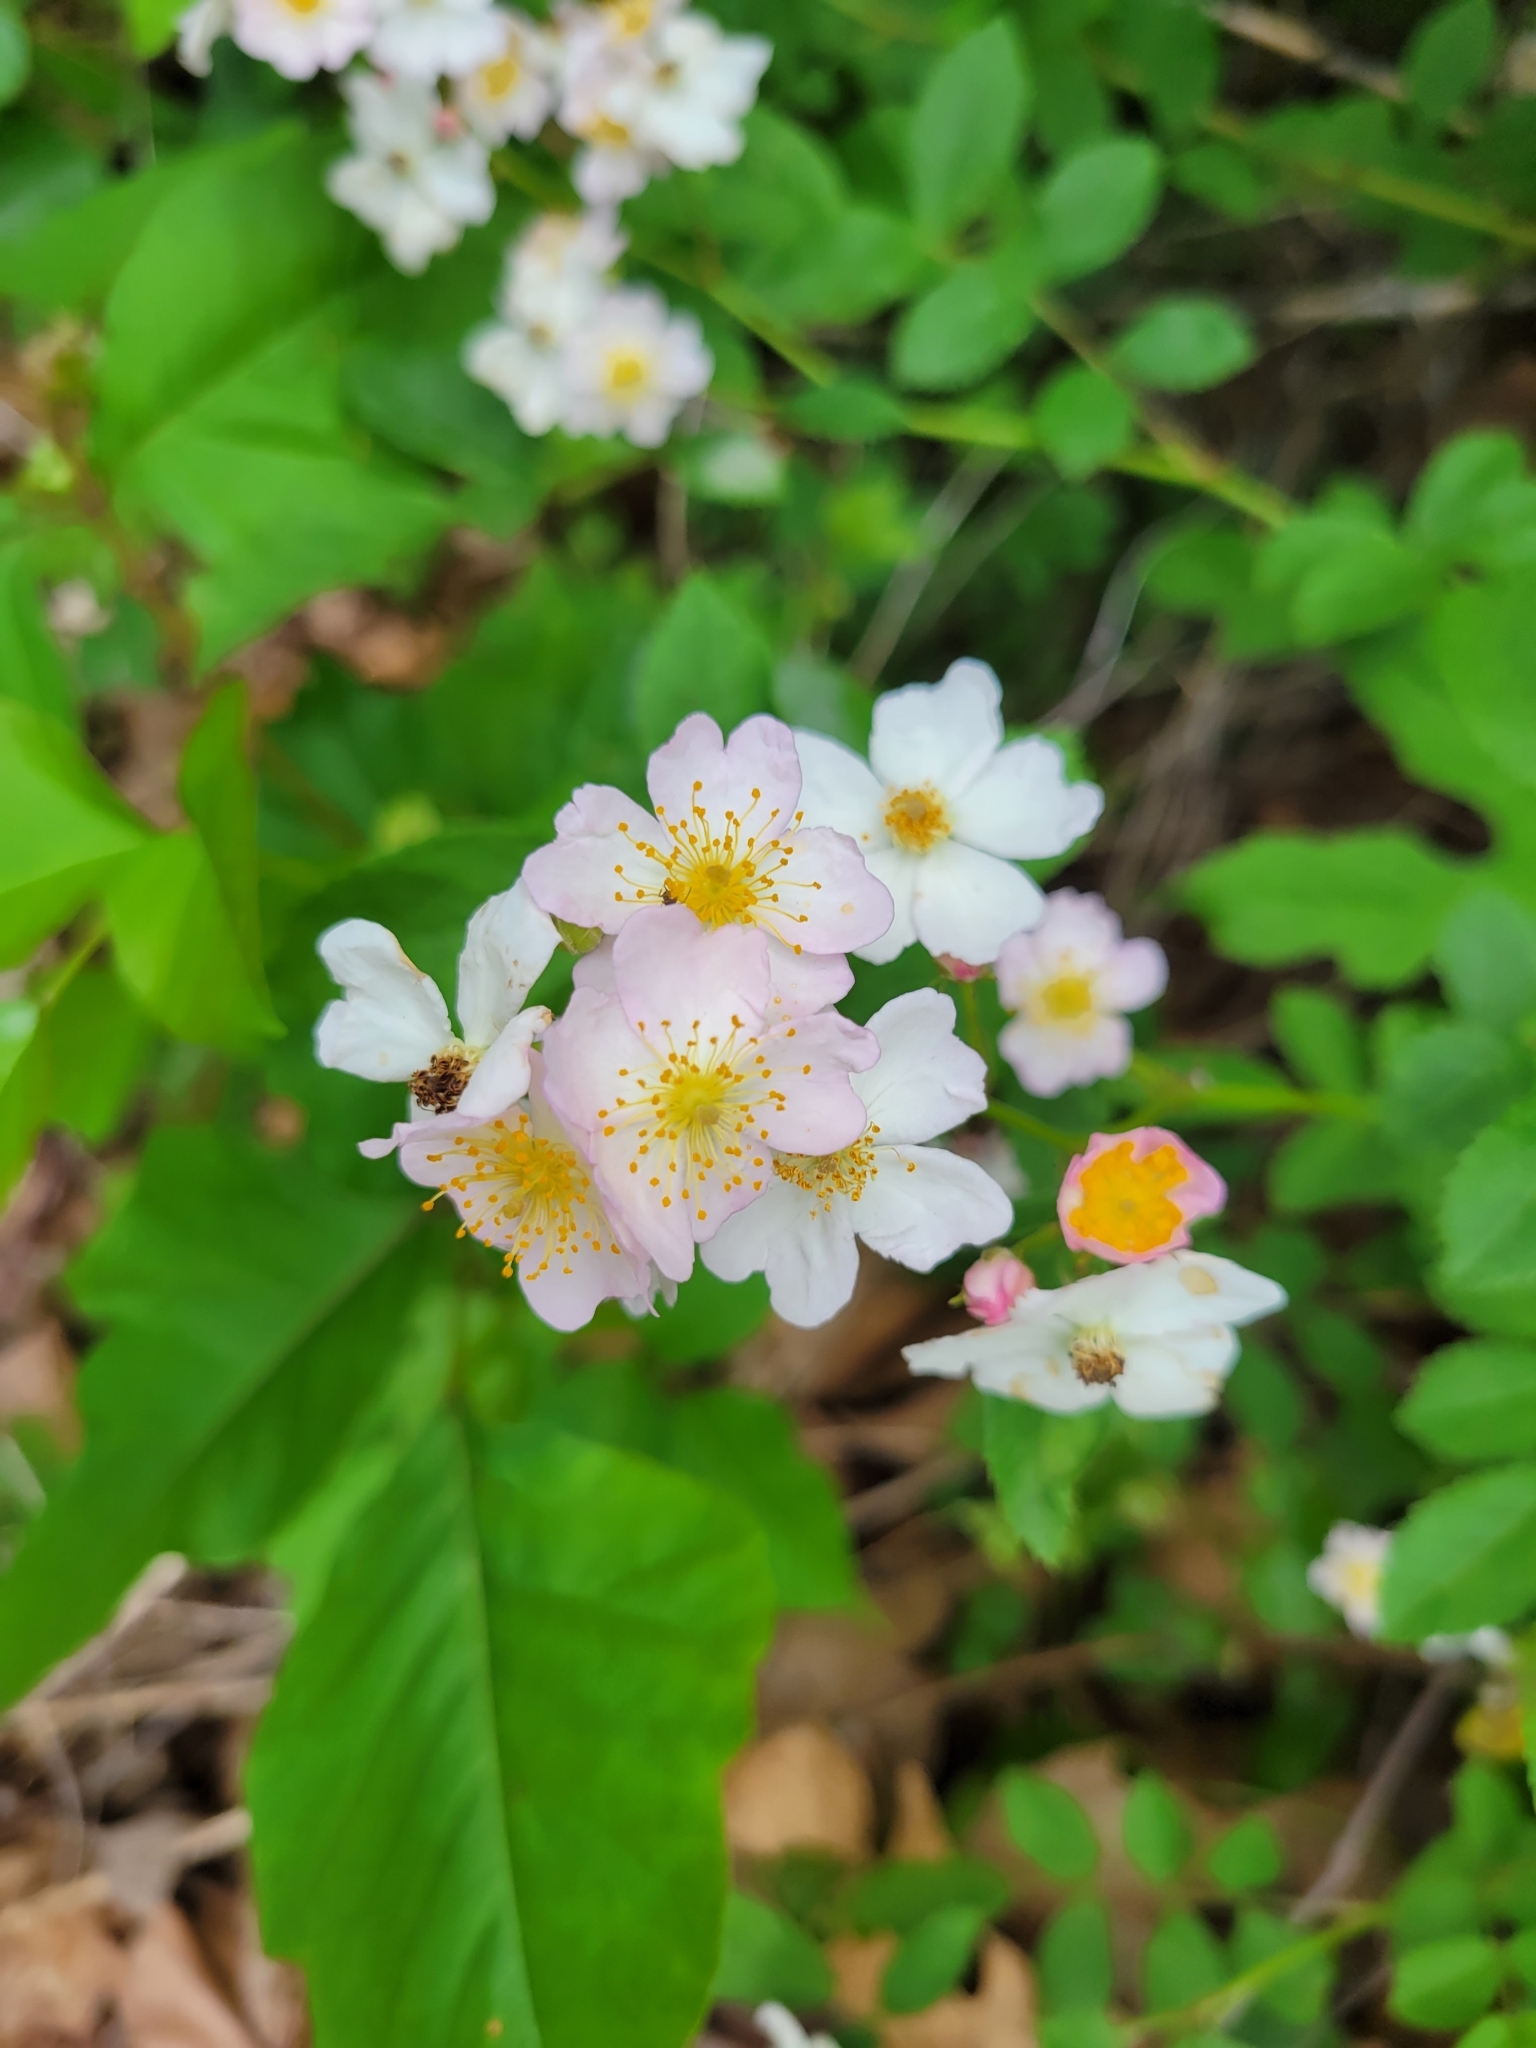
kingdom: Plantae
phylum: Tracheophyta
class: Magnoliopsida
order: Rosales
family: Rosaceae
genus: Rosa
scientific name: Rosa multiflora
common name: Multiflora rose
